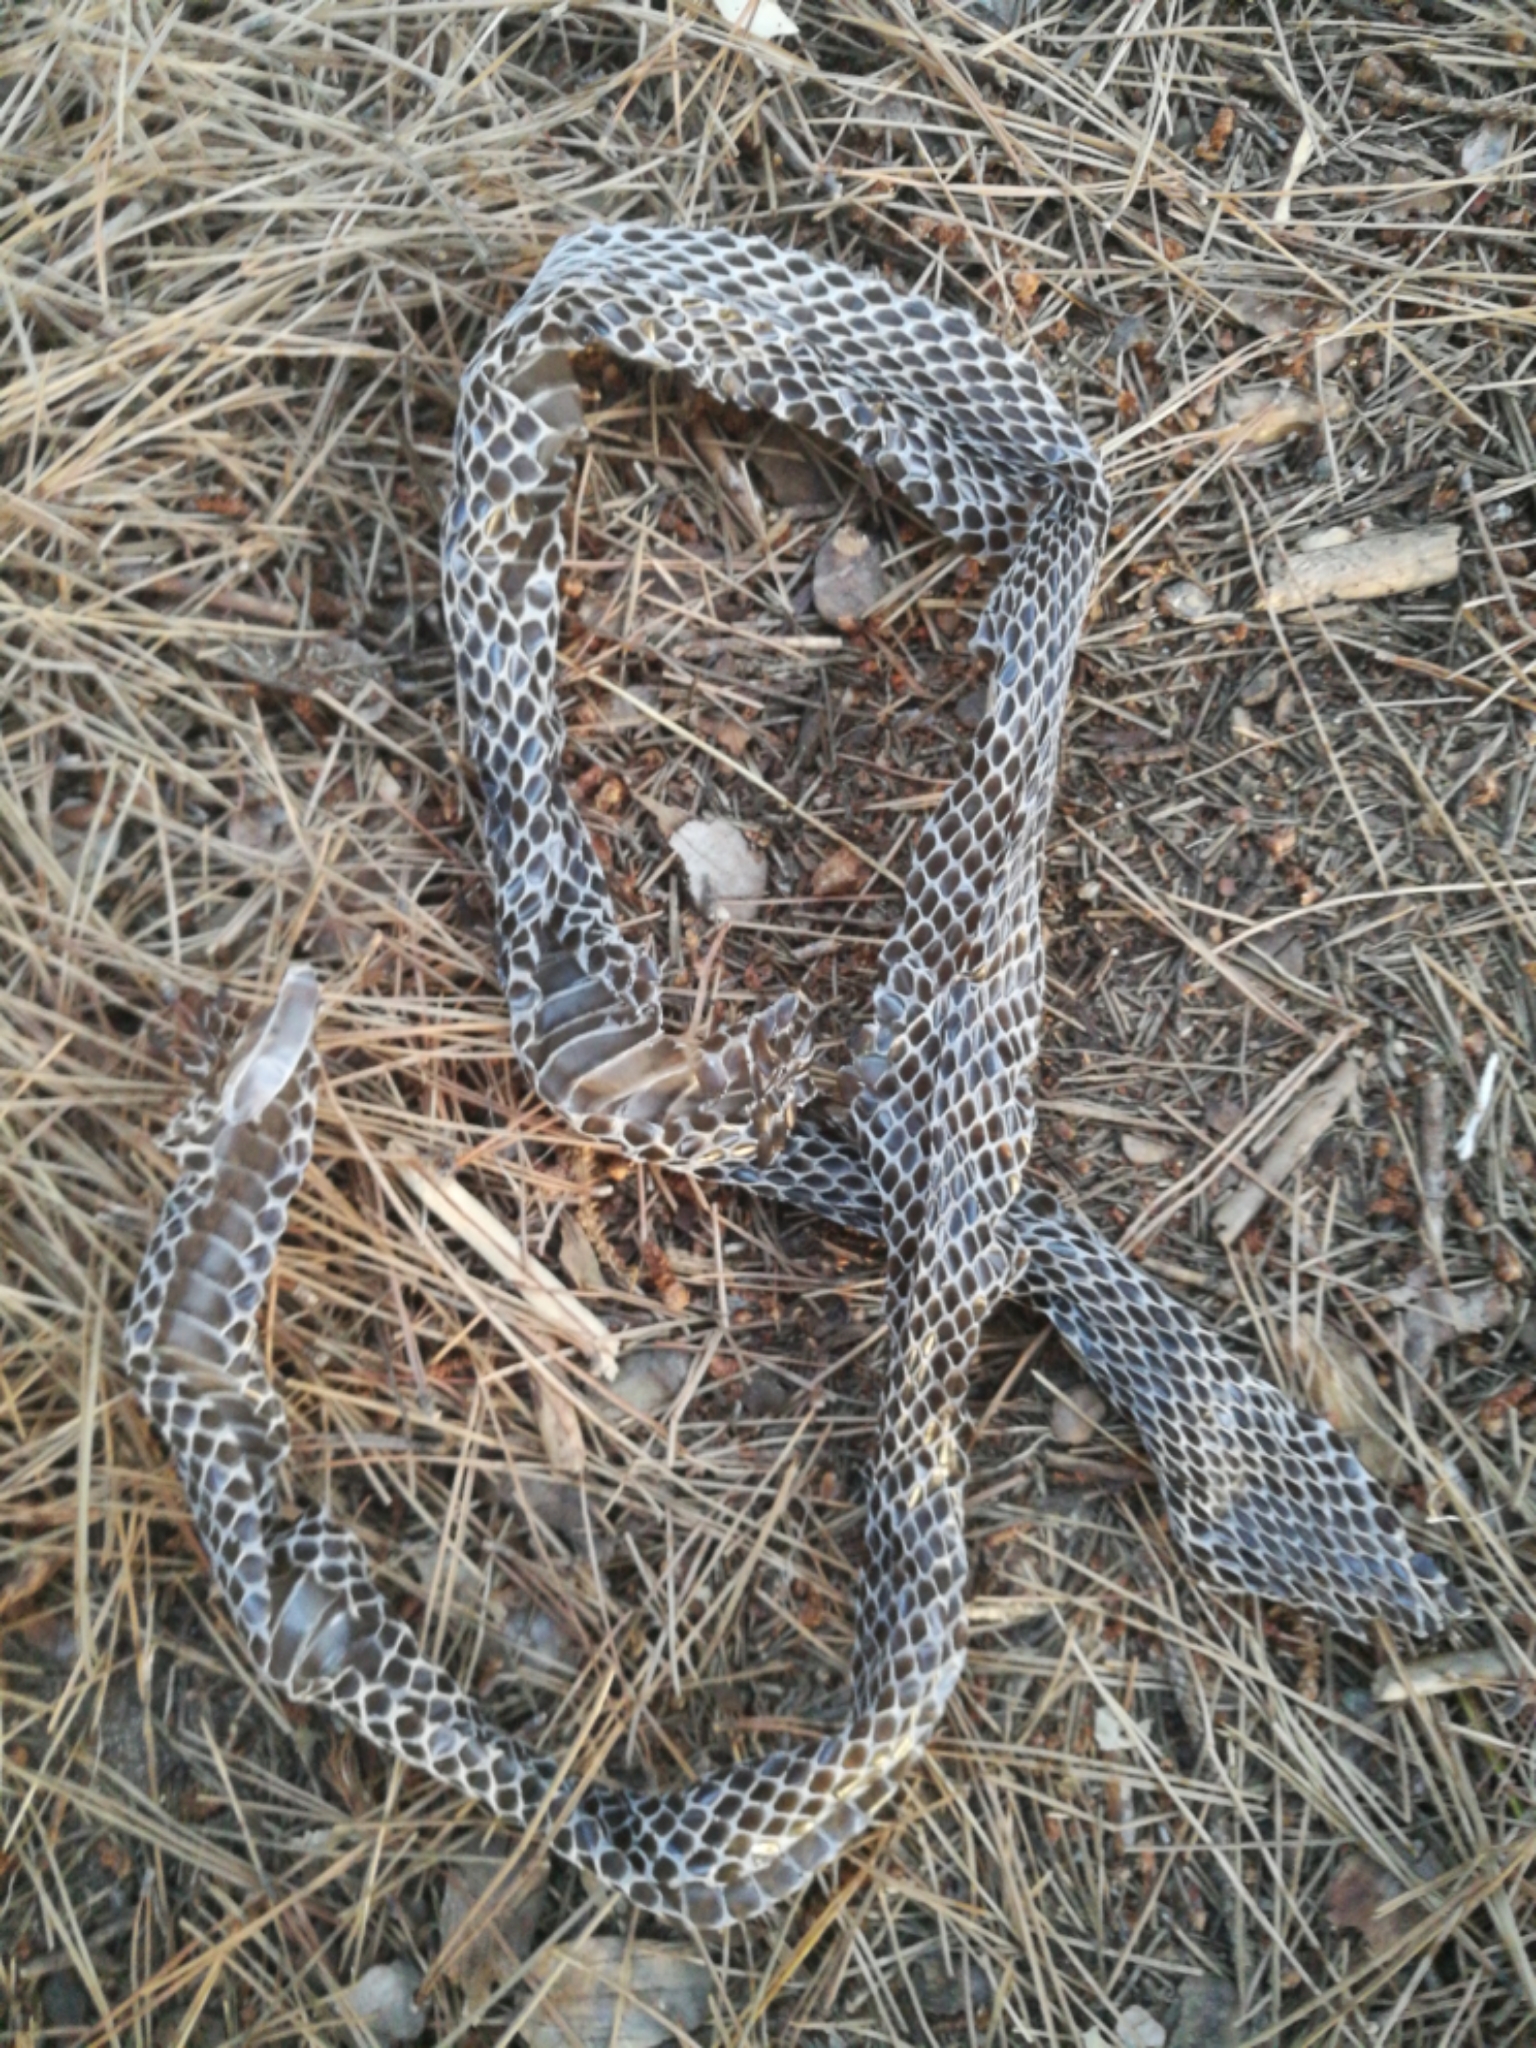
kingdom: Animalia
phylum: Chordata
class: Squamata
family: Colubridae
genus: Hierophis
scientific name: Hierophis viridiflavus
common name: Green whip snake
